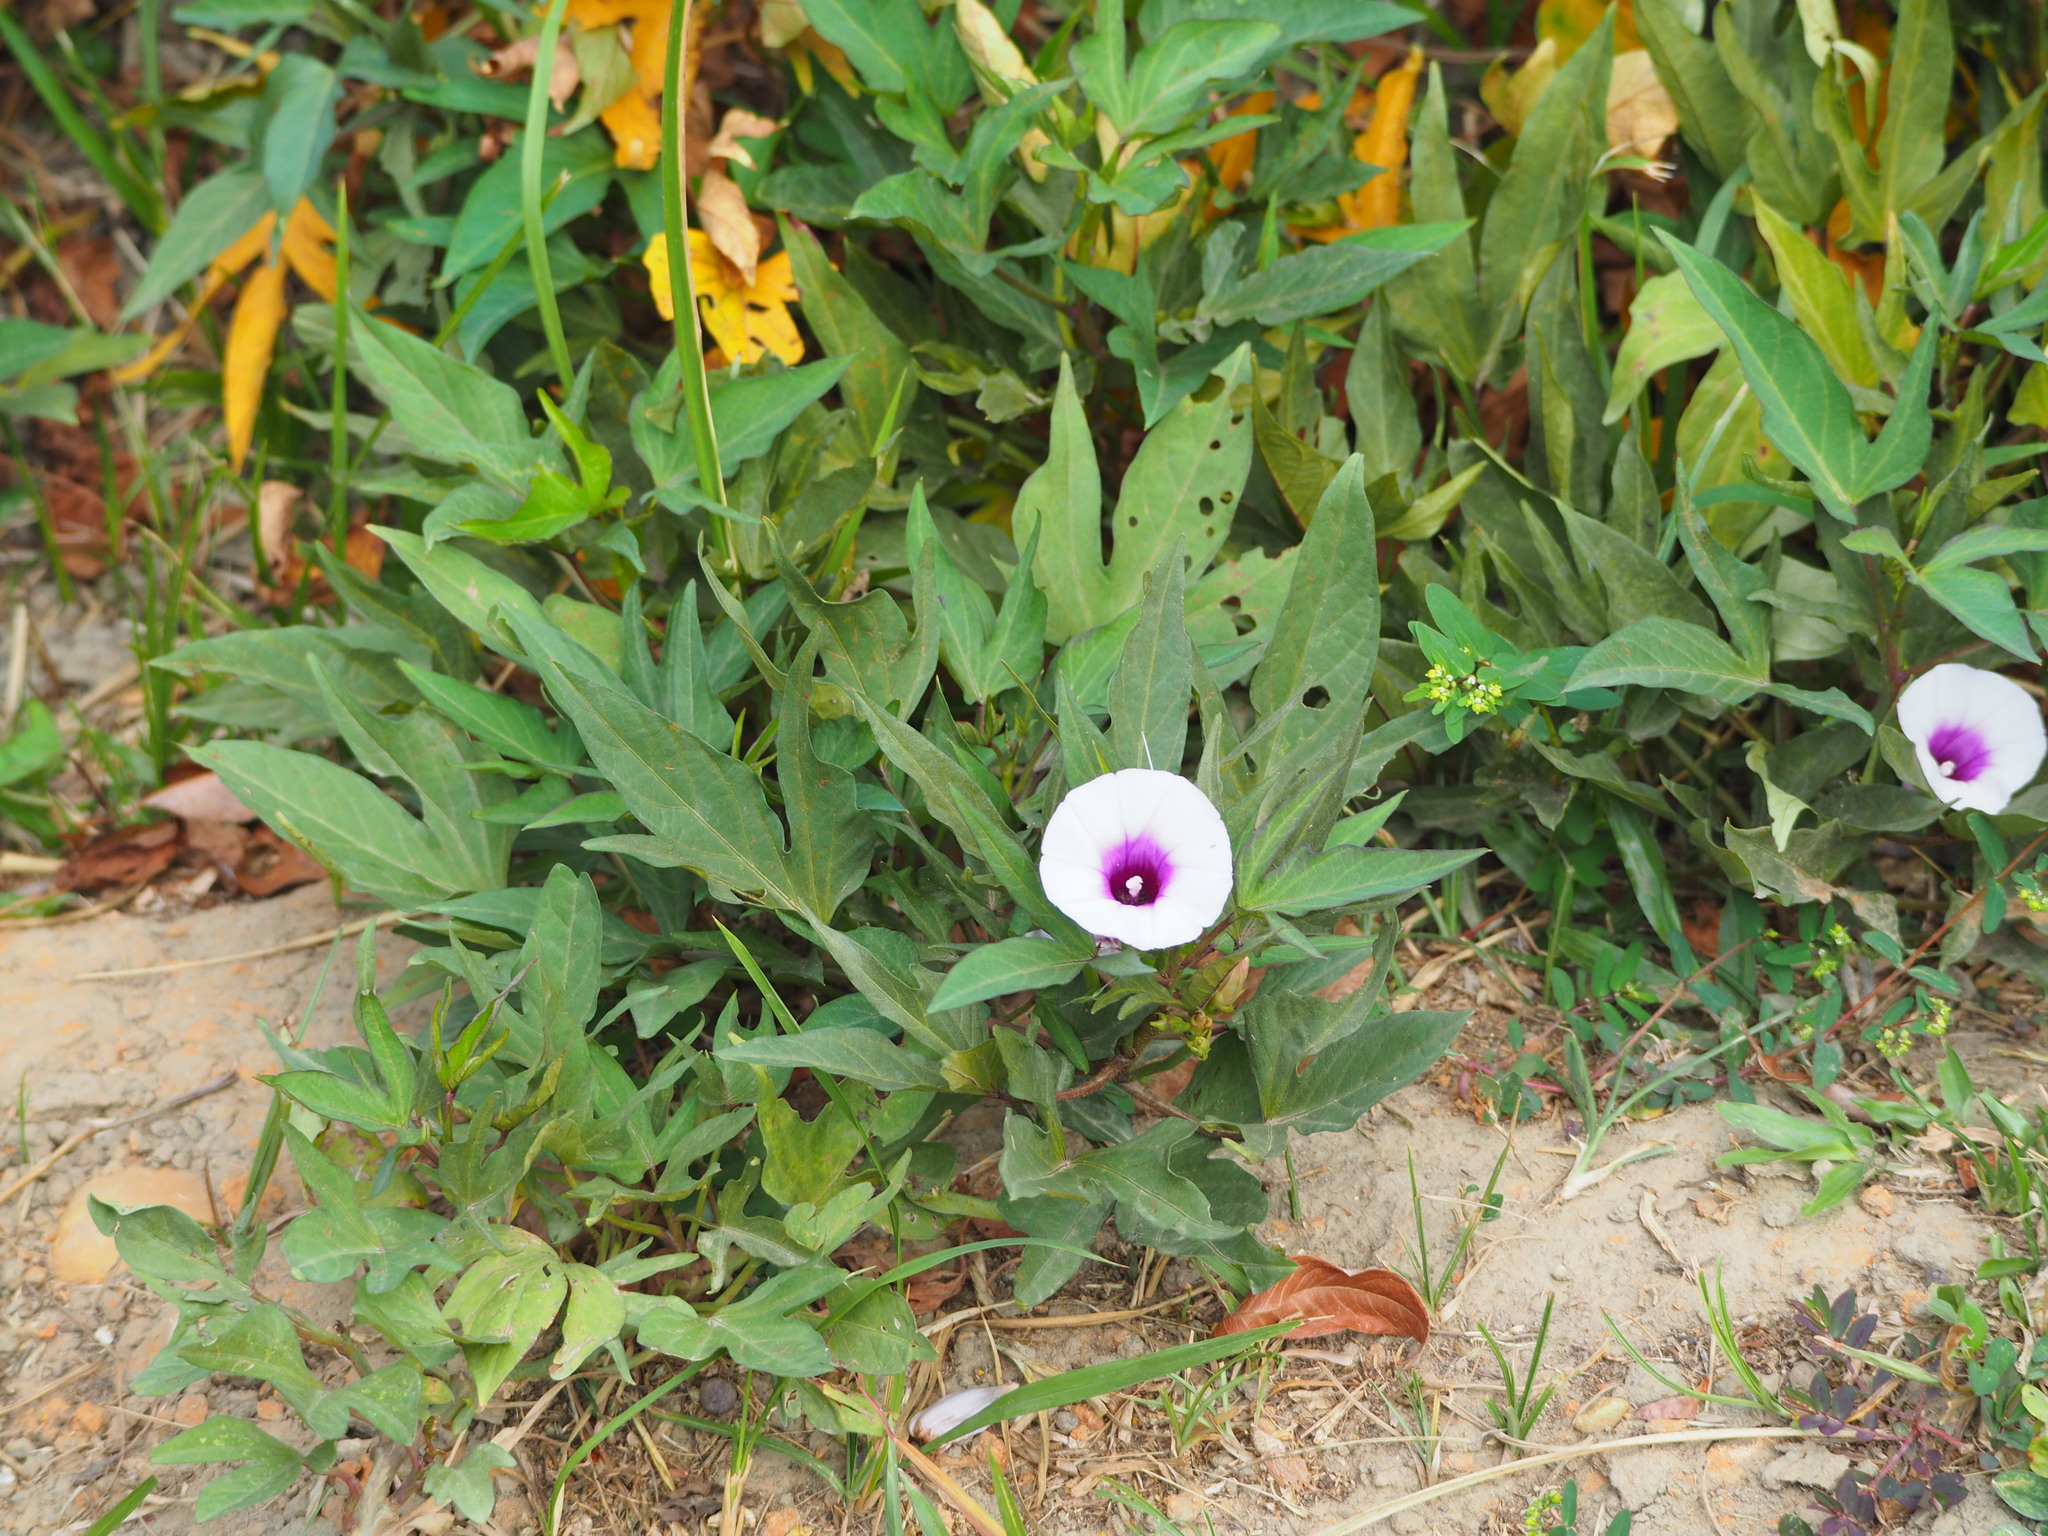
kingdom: Plantae
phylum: Tracheophyta
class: Magnoliopsida
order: Solanales
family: Convolvulaceae
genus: Ipomoea
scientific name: Ipomoea batatas
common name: Sweet-potato
